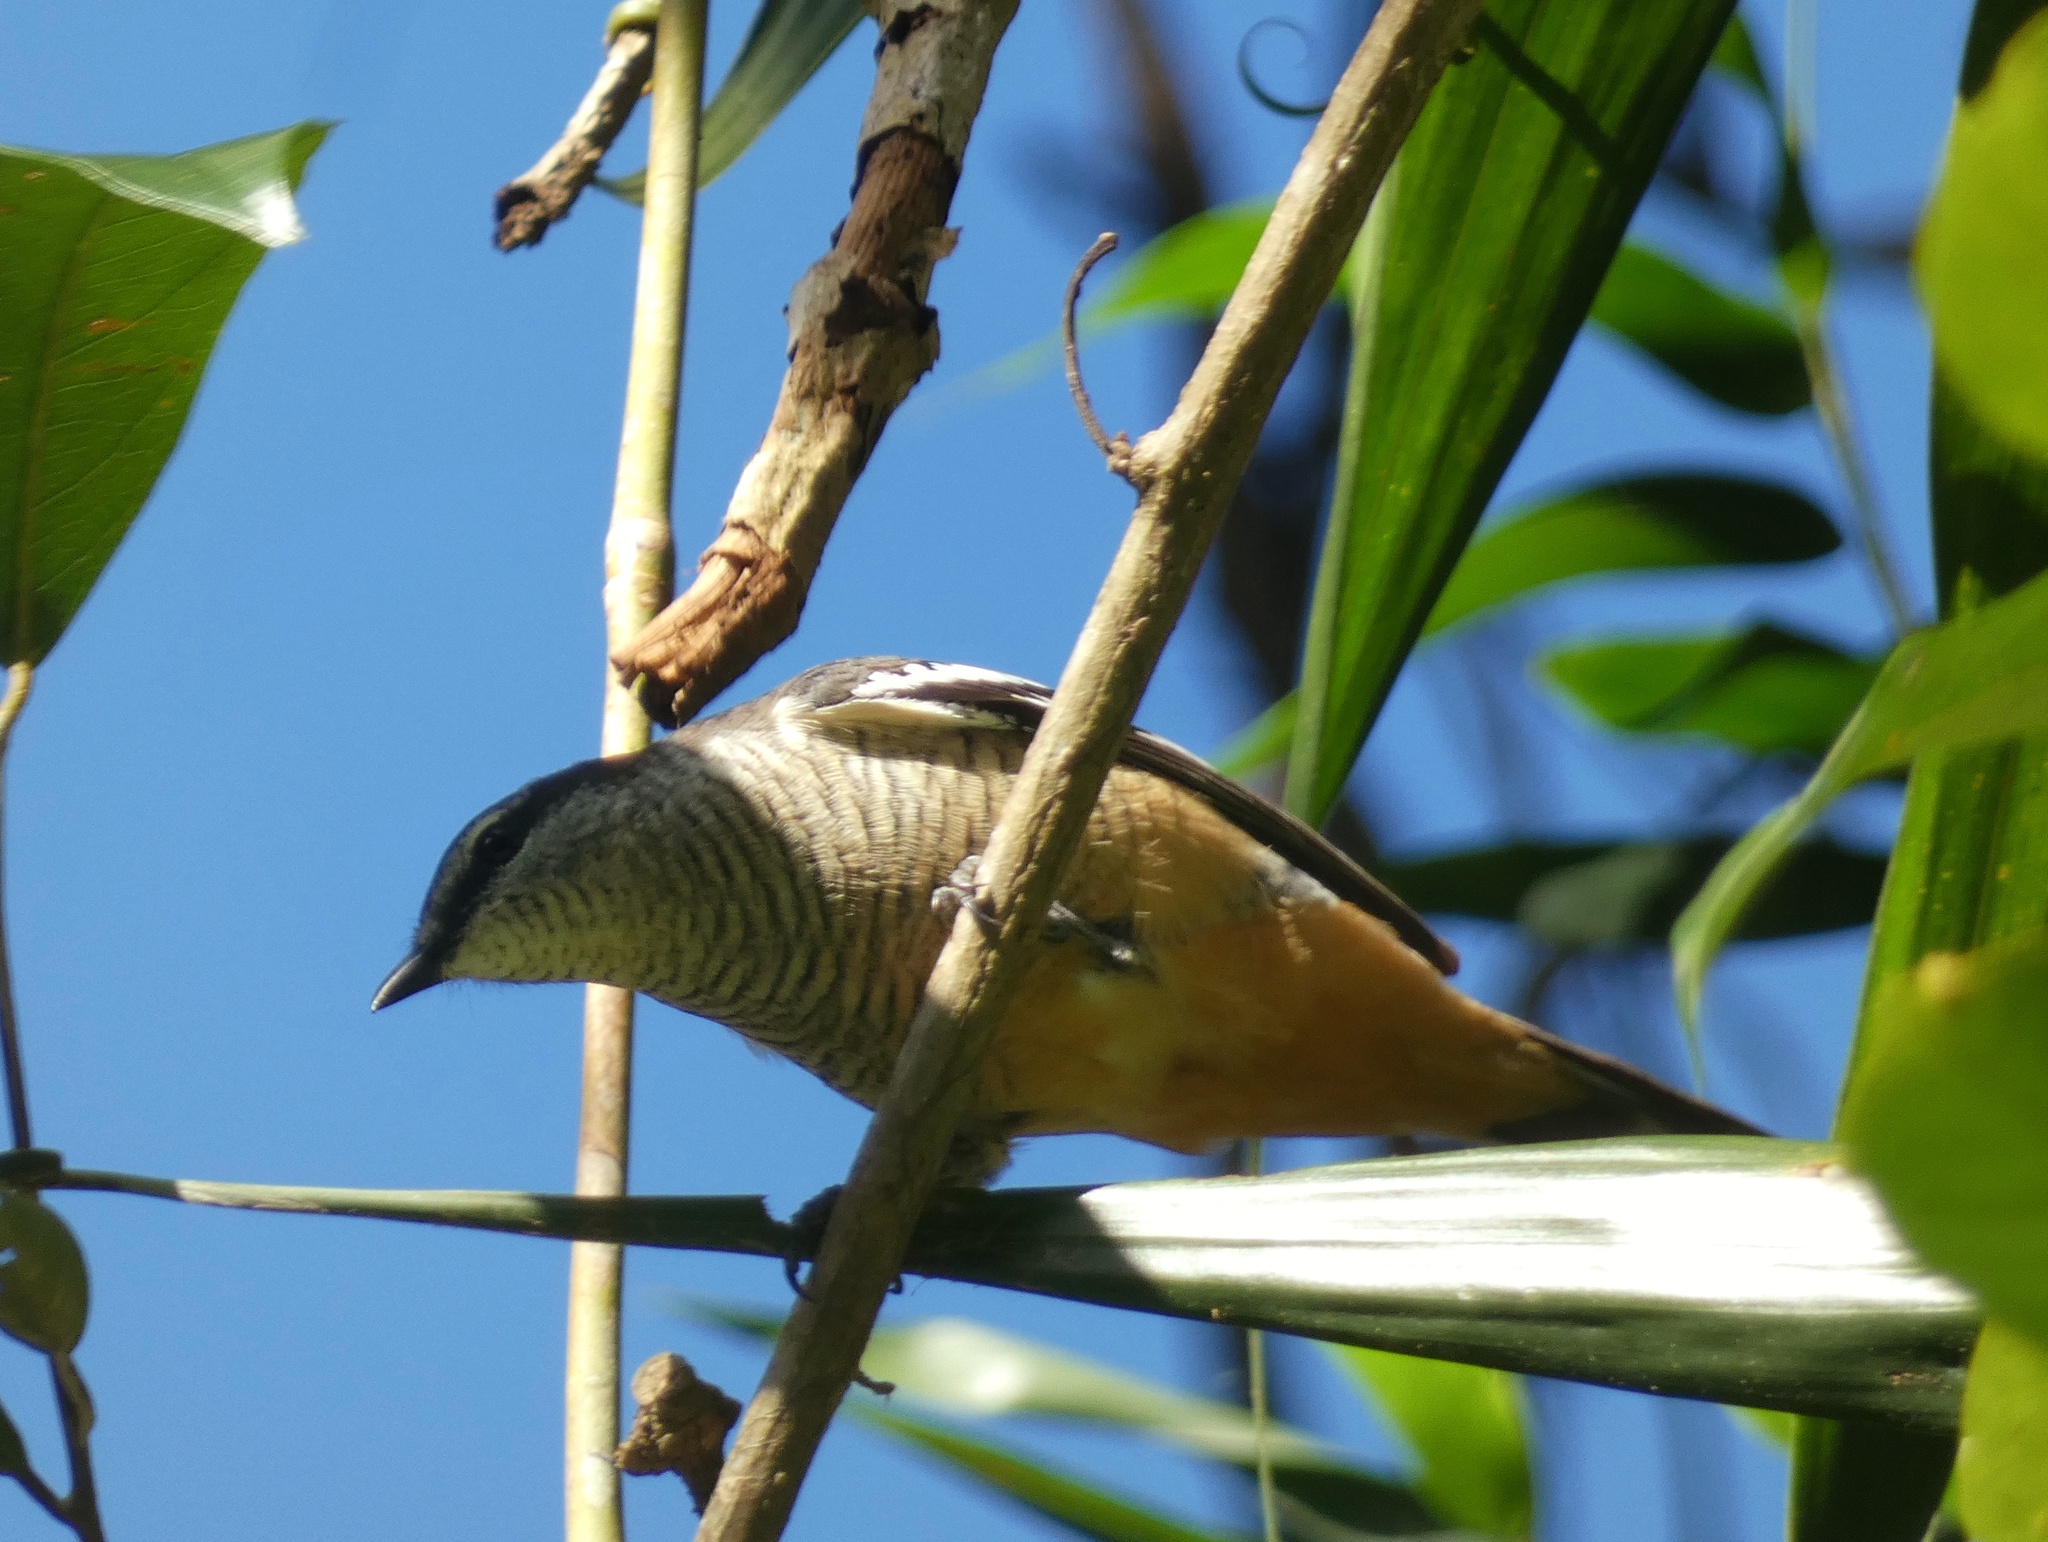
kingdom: Animalia
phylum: Chordata
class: Aves
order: Passeriformes
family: Campephagidae
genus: Lalage
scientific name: Lalage leucomela
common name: Varied triller
